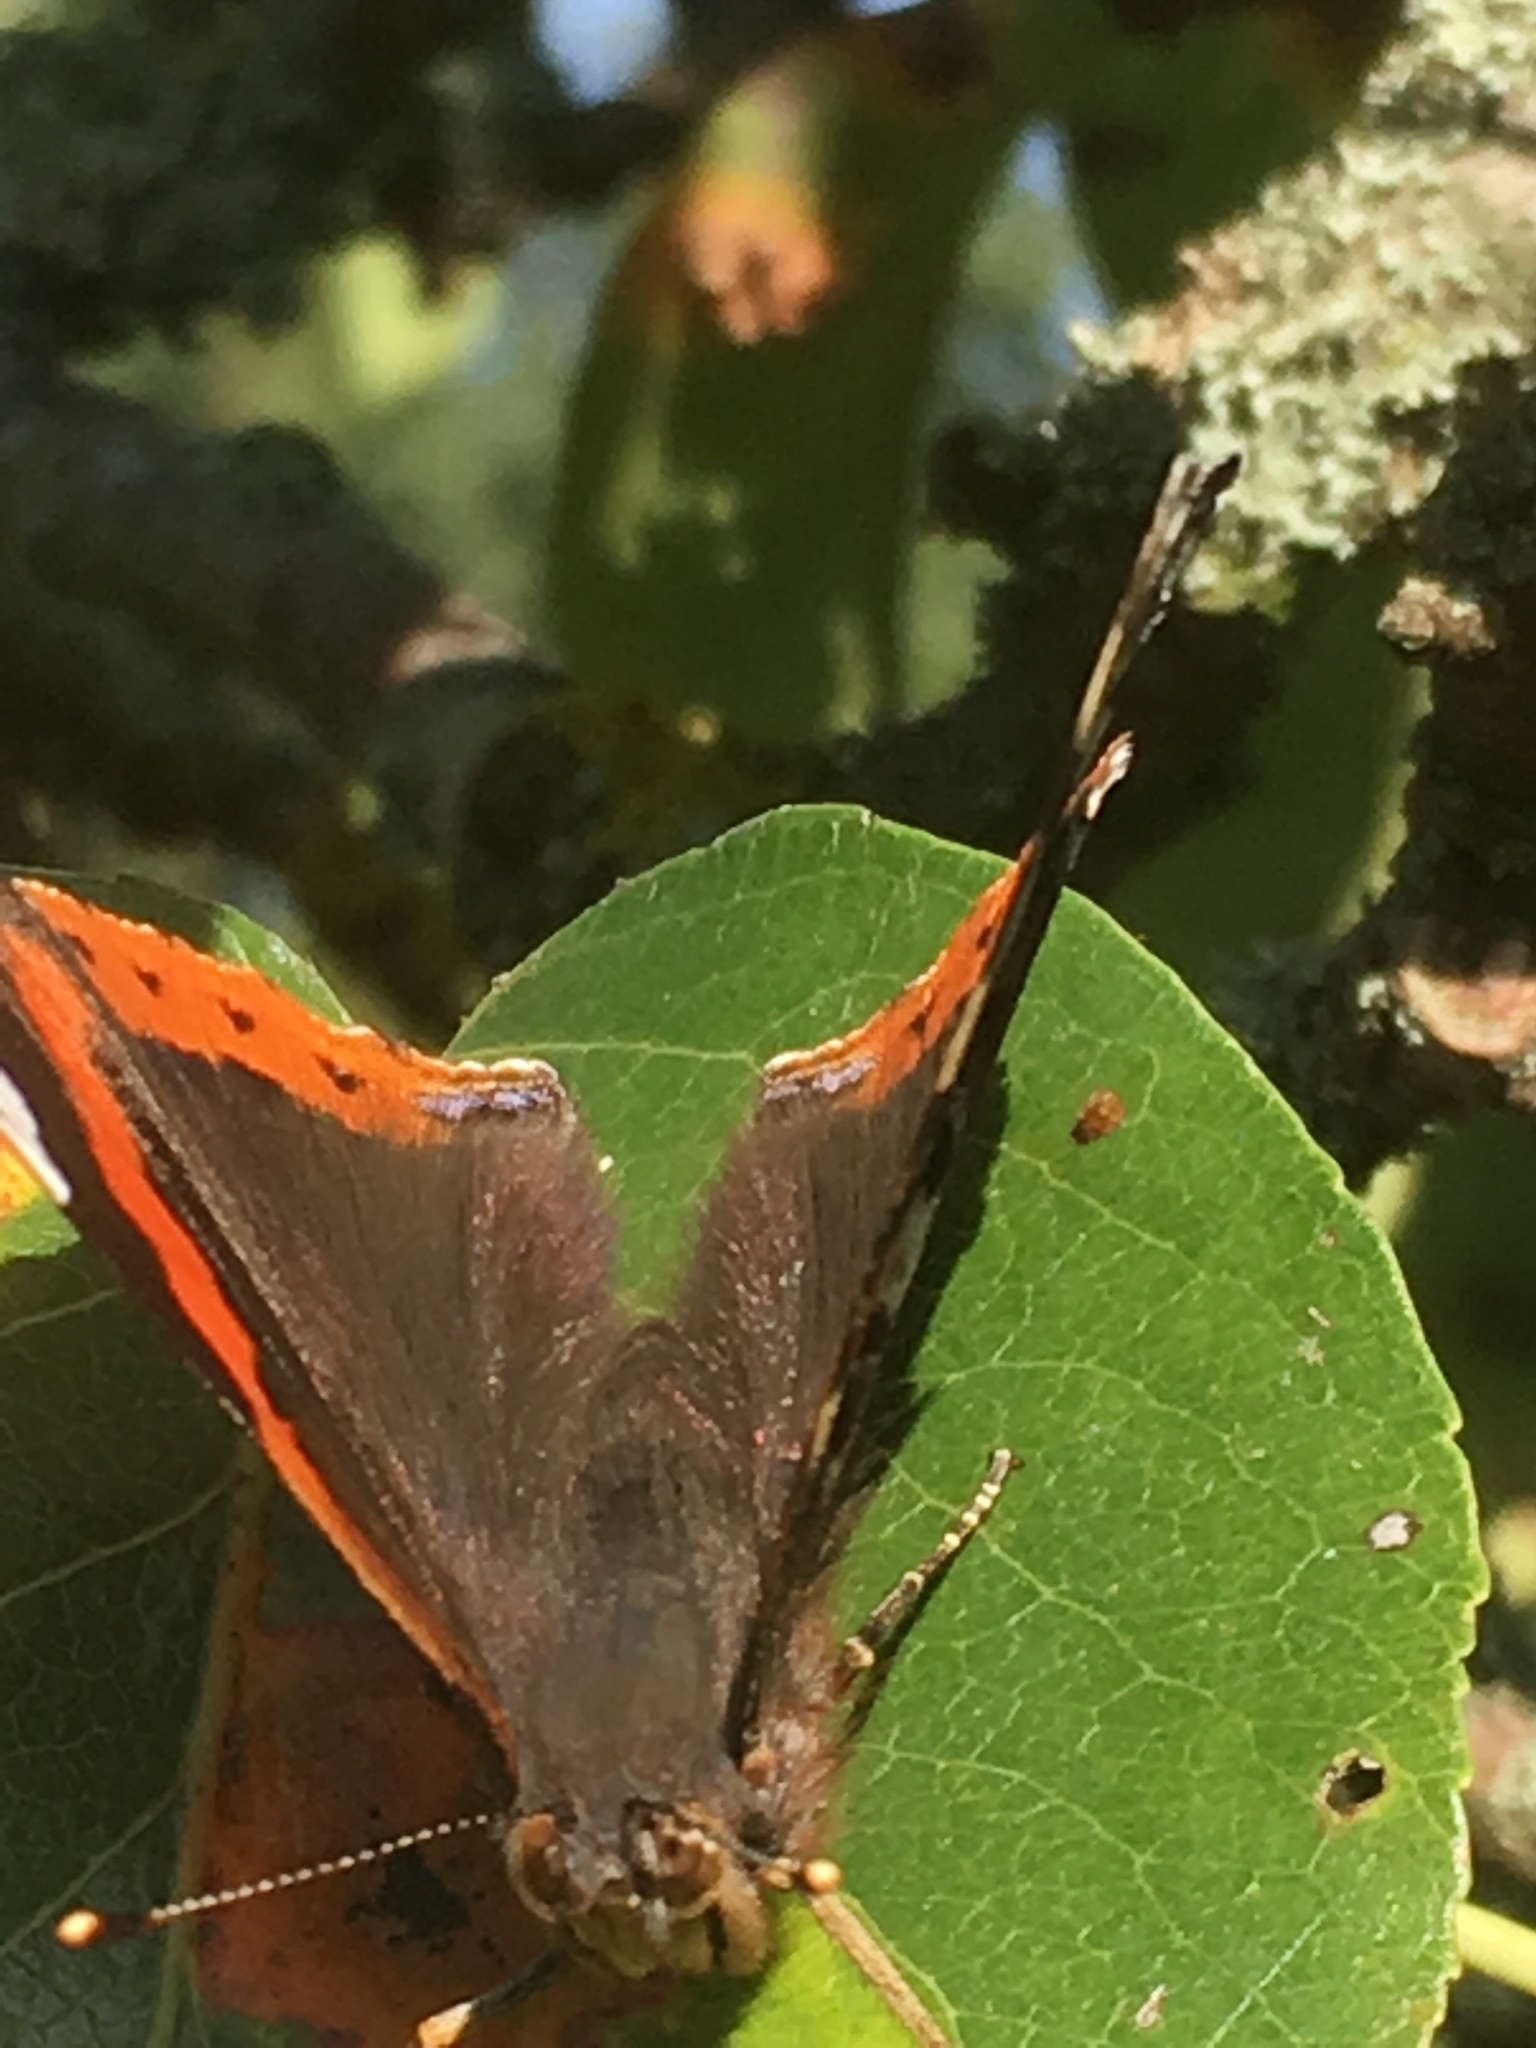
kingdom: Animalia
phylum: Arthropoda
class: Insecta
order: Lepidoptera
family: Nymphalidae
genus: Vanessa
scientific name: Vanessa atalanta
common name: Red admiral
